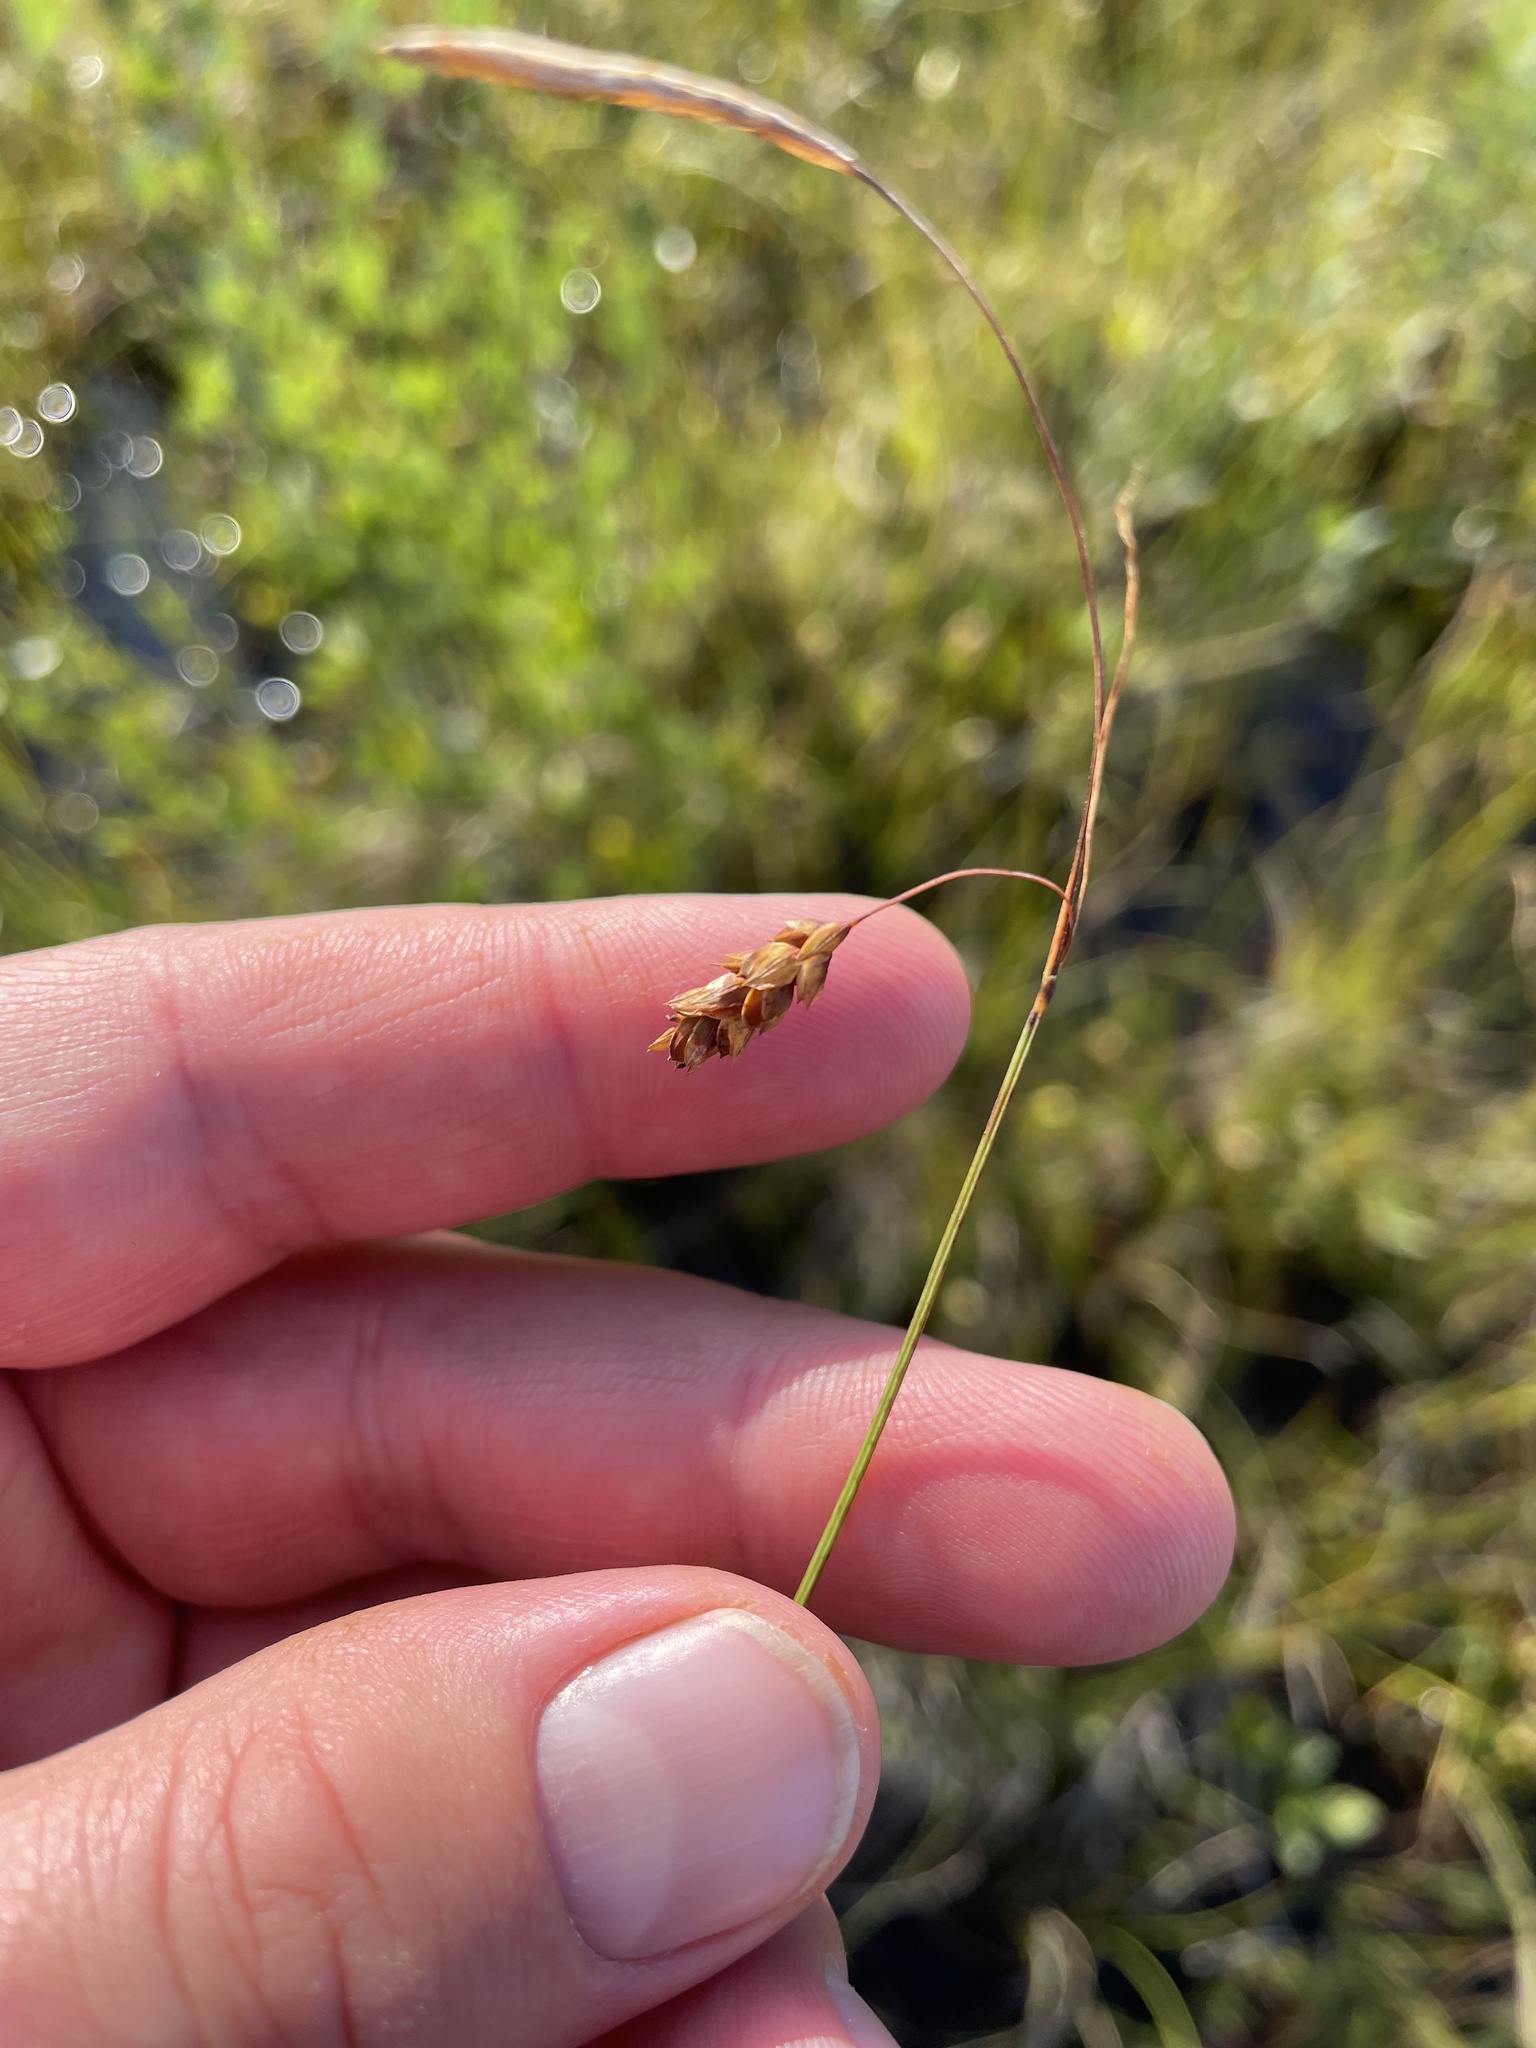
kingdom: Plantae
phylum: Tracheophyta
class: Liliopsida
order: Poales
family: Cyperaceae
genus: Carex
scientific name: Carex limosa
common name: Bog sedge
